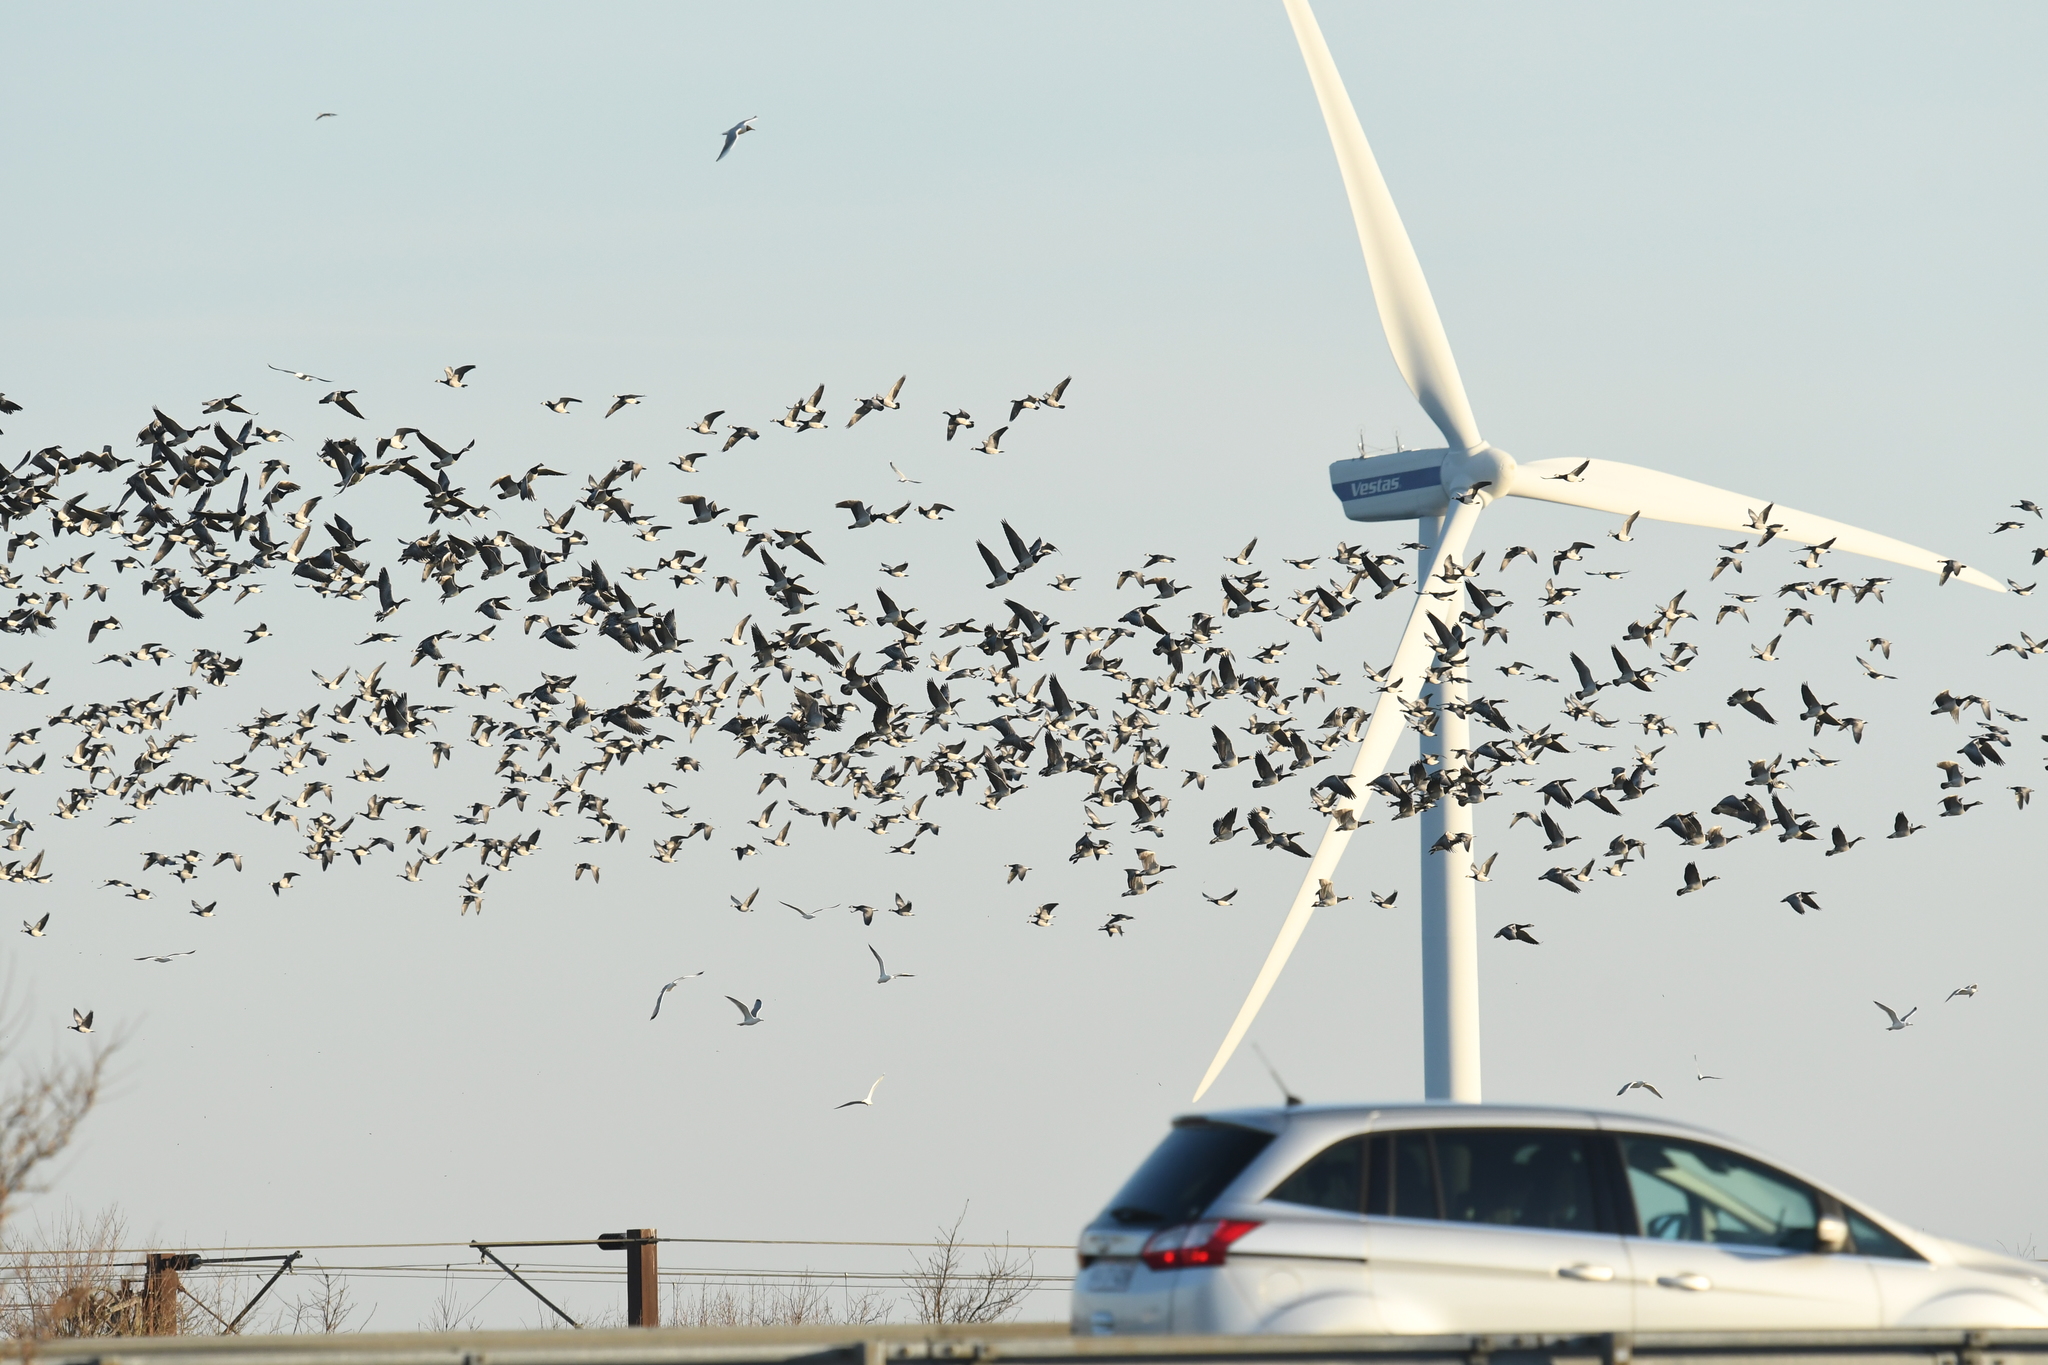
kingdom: Animalia
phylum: Chordata
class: Aves
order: Anseriformes
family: Anatidae
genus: Branta
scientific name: Branta leucopsis
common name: Barnacle goose
